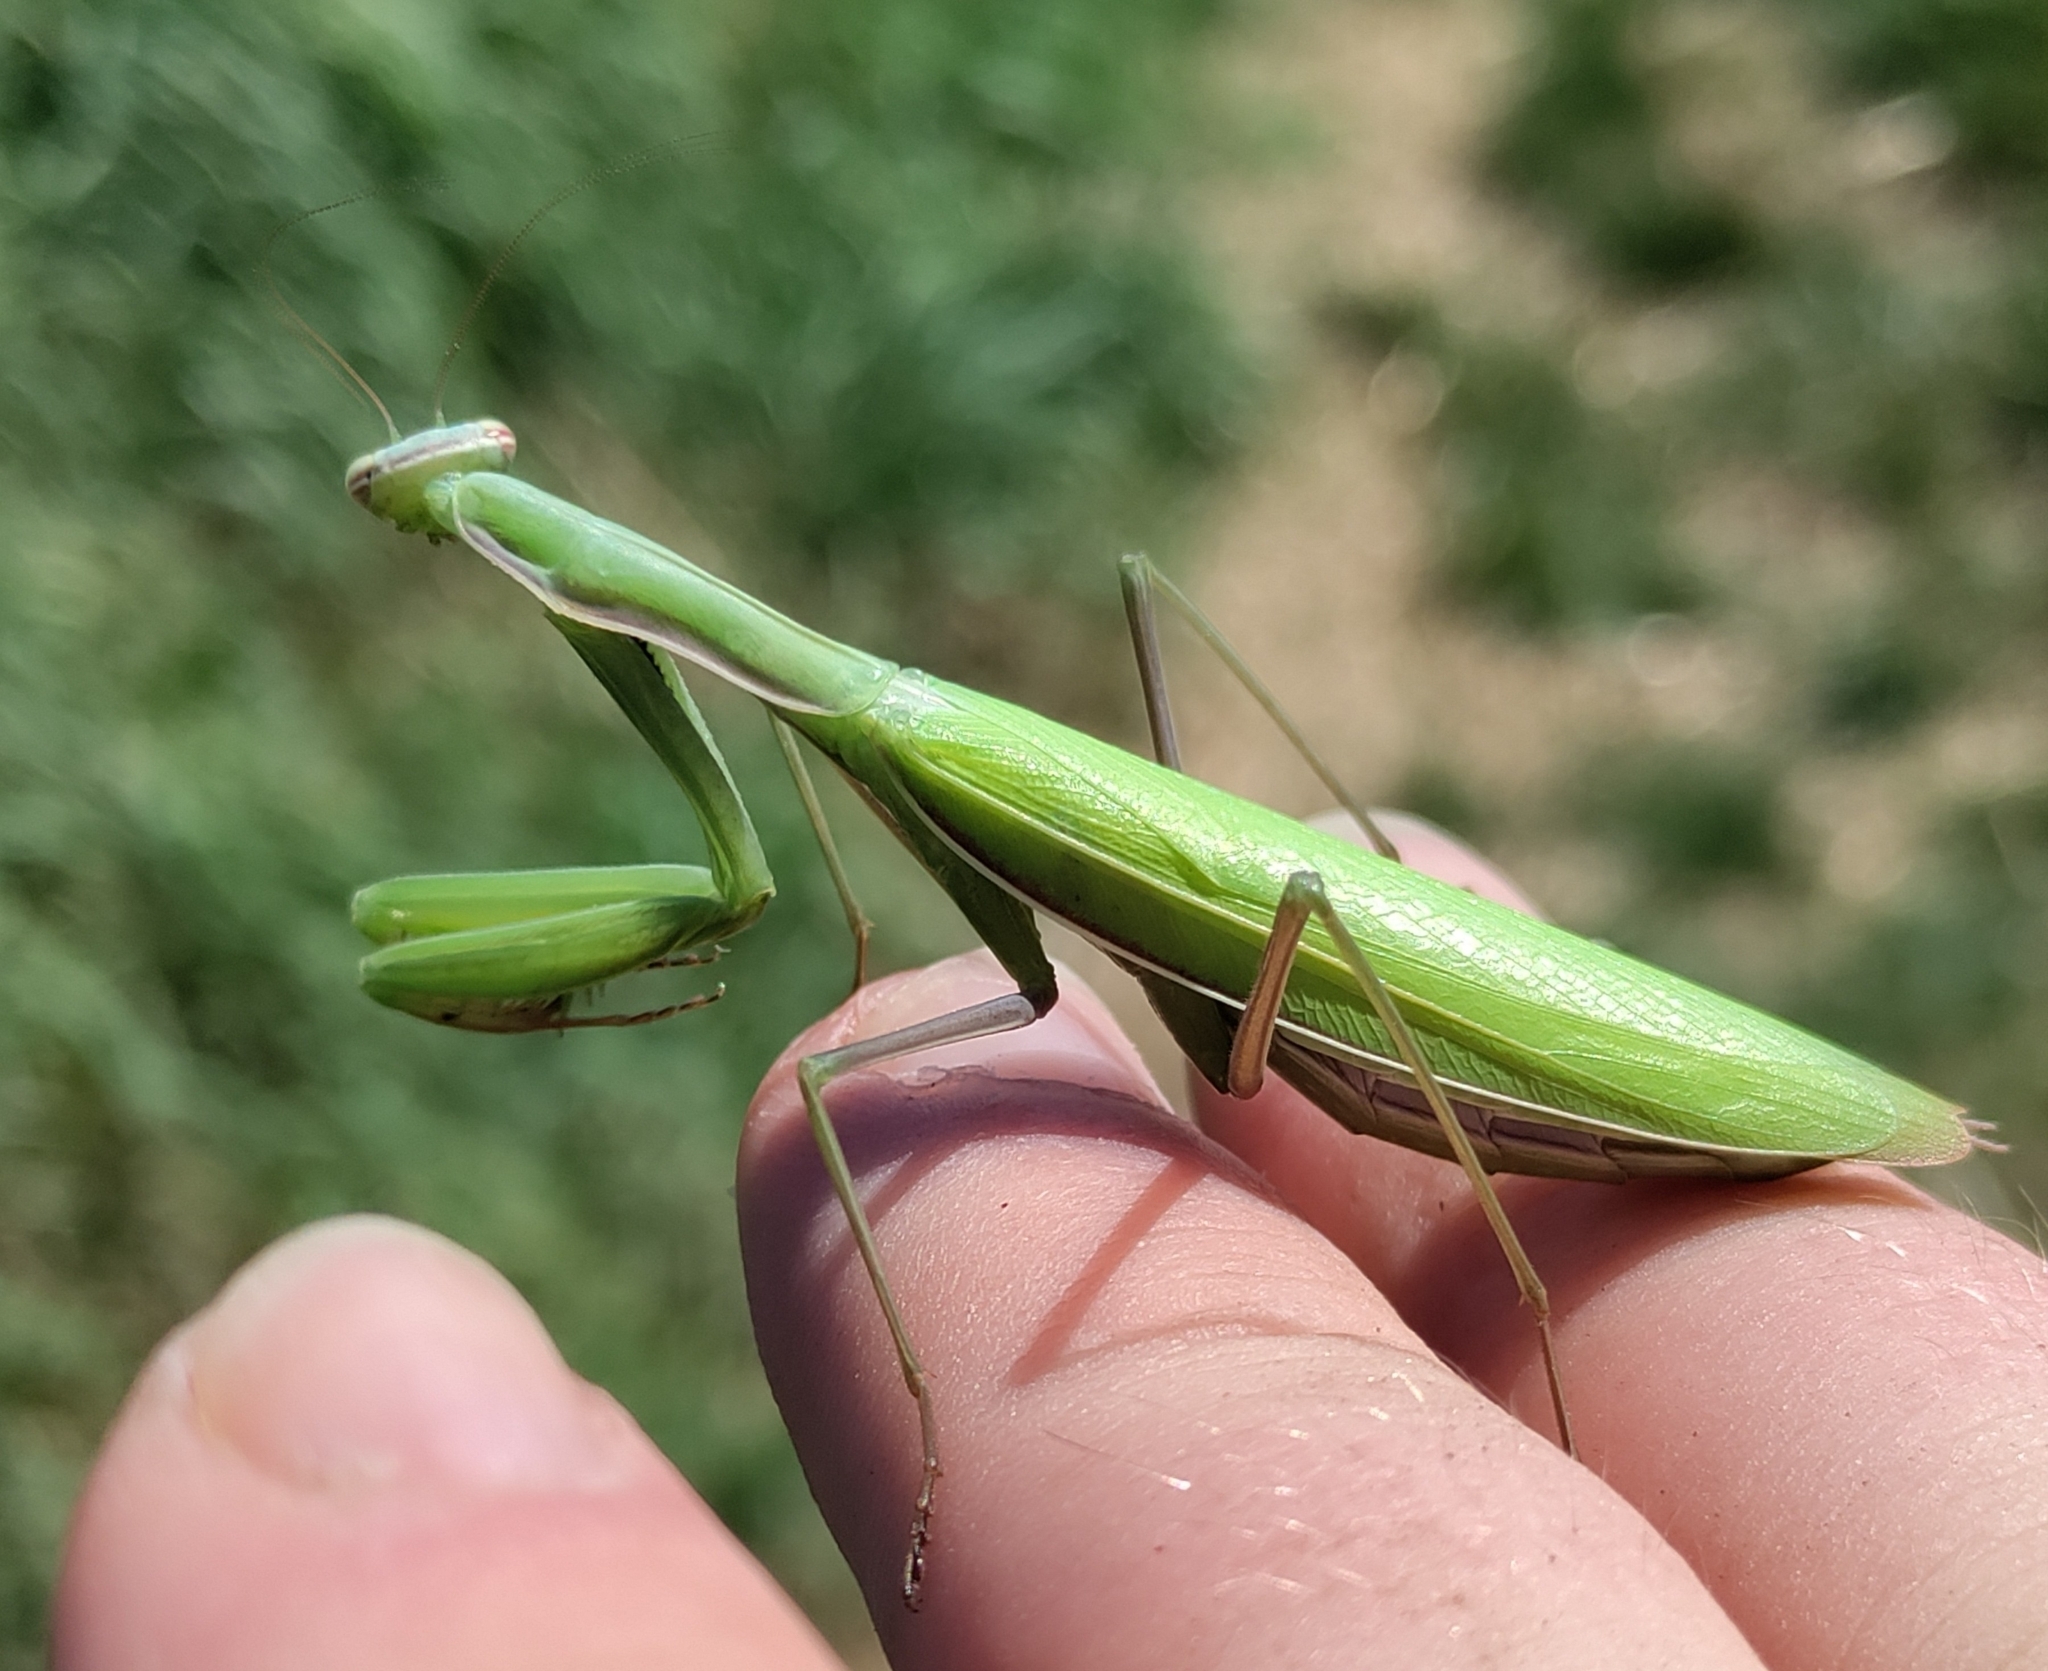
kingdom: Animalia
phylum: Arthropoda
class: Insecta
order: Mantodea
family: Mantidae
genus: Mantis
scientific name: Mantis religiosa
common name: Praying mantis
